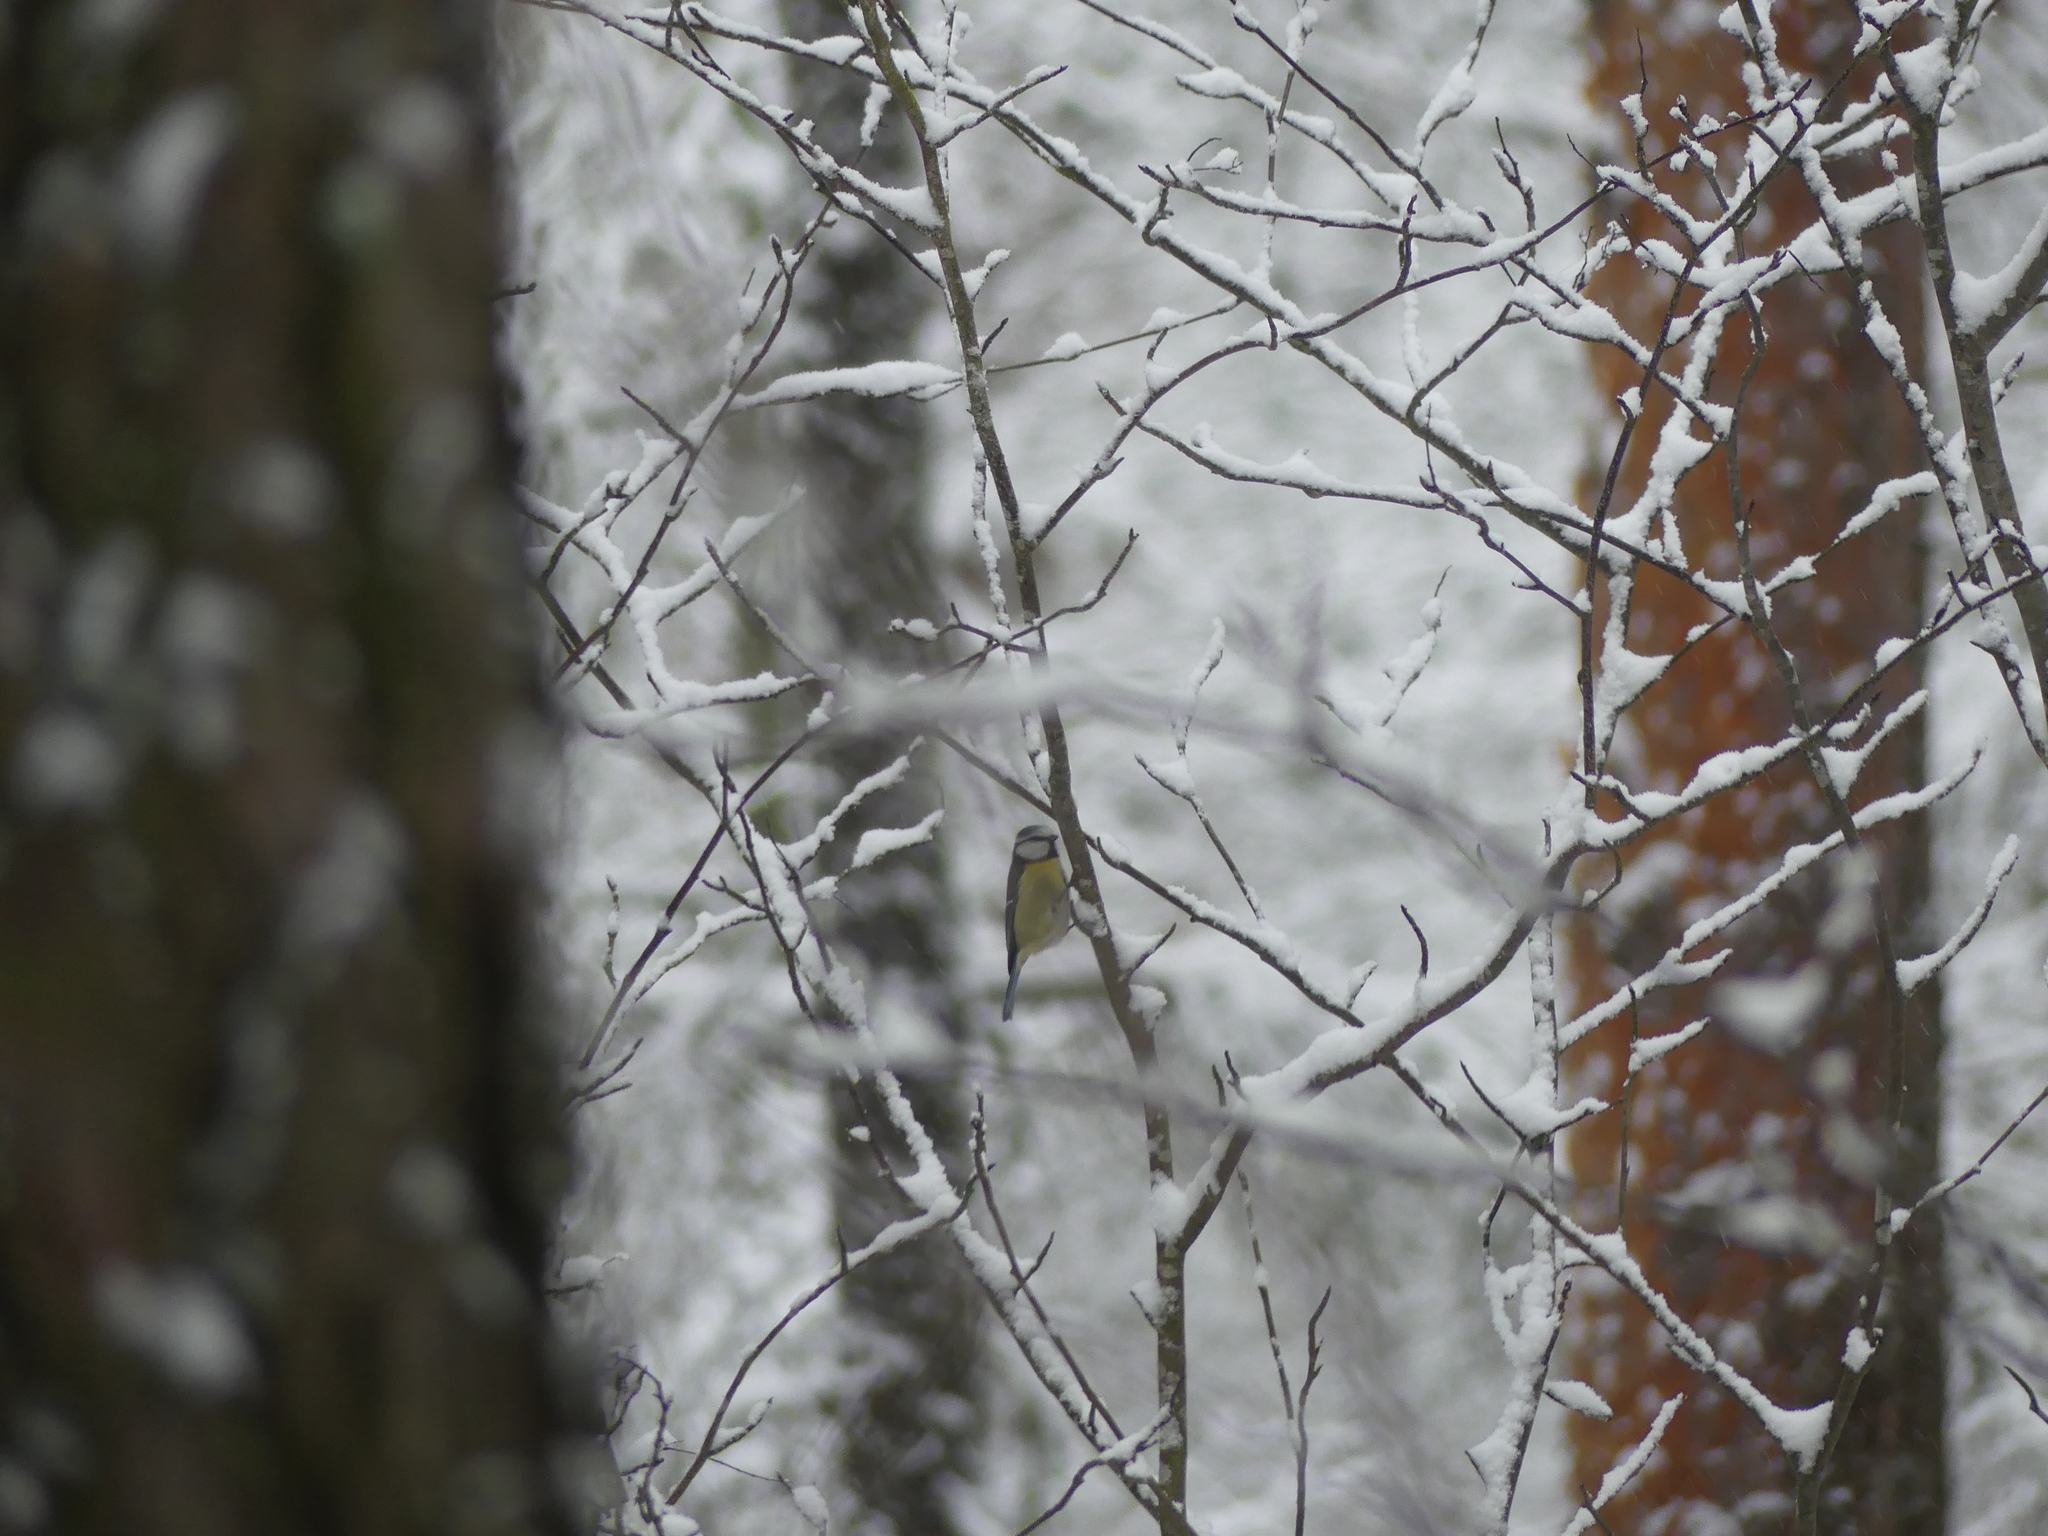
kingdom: Animalia
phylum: Chordata
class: Aves
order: Passeriformes
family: Paridae
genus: Cyanistes
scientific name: Cyanistes caeruleus
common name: Eurasian blue tit
